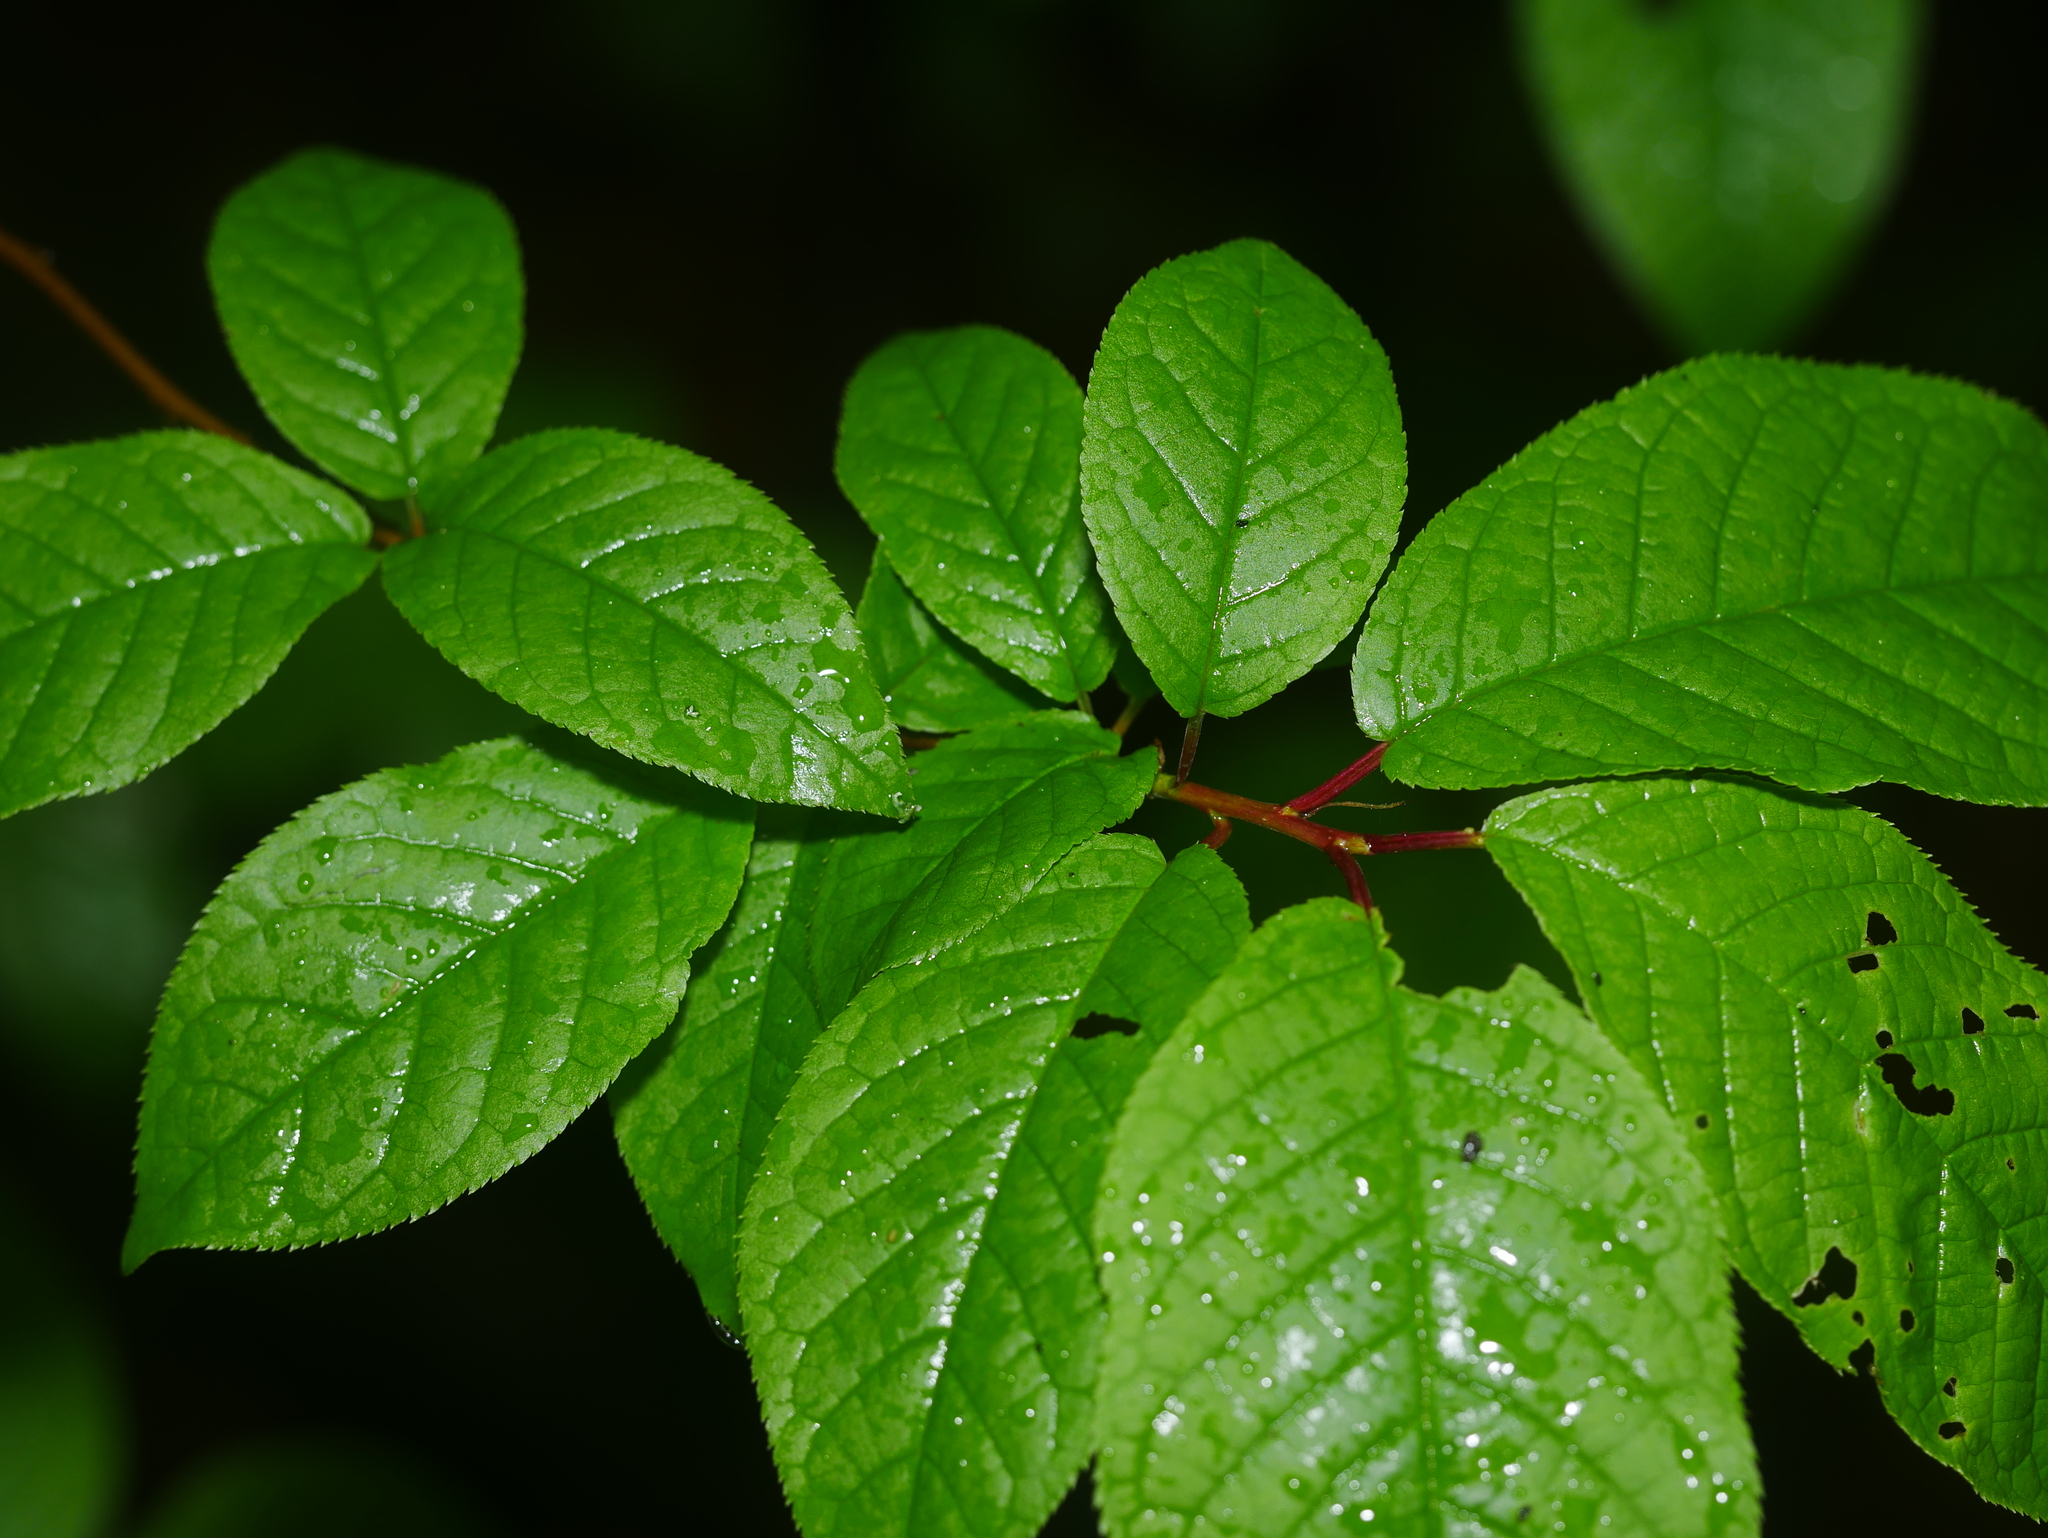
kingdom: Plantae
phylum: Tracheophyta
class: Magnoliopsida
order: Rosales
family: Rosaceae
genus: Prunus
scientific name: Prunus padus
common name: Bird cherry
